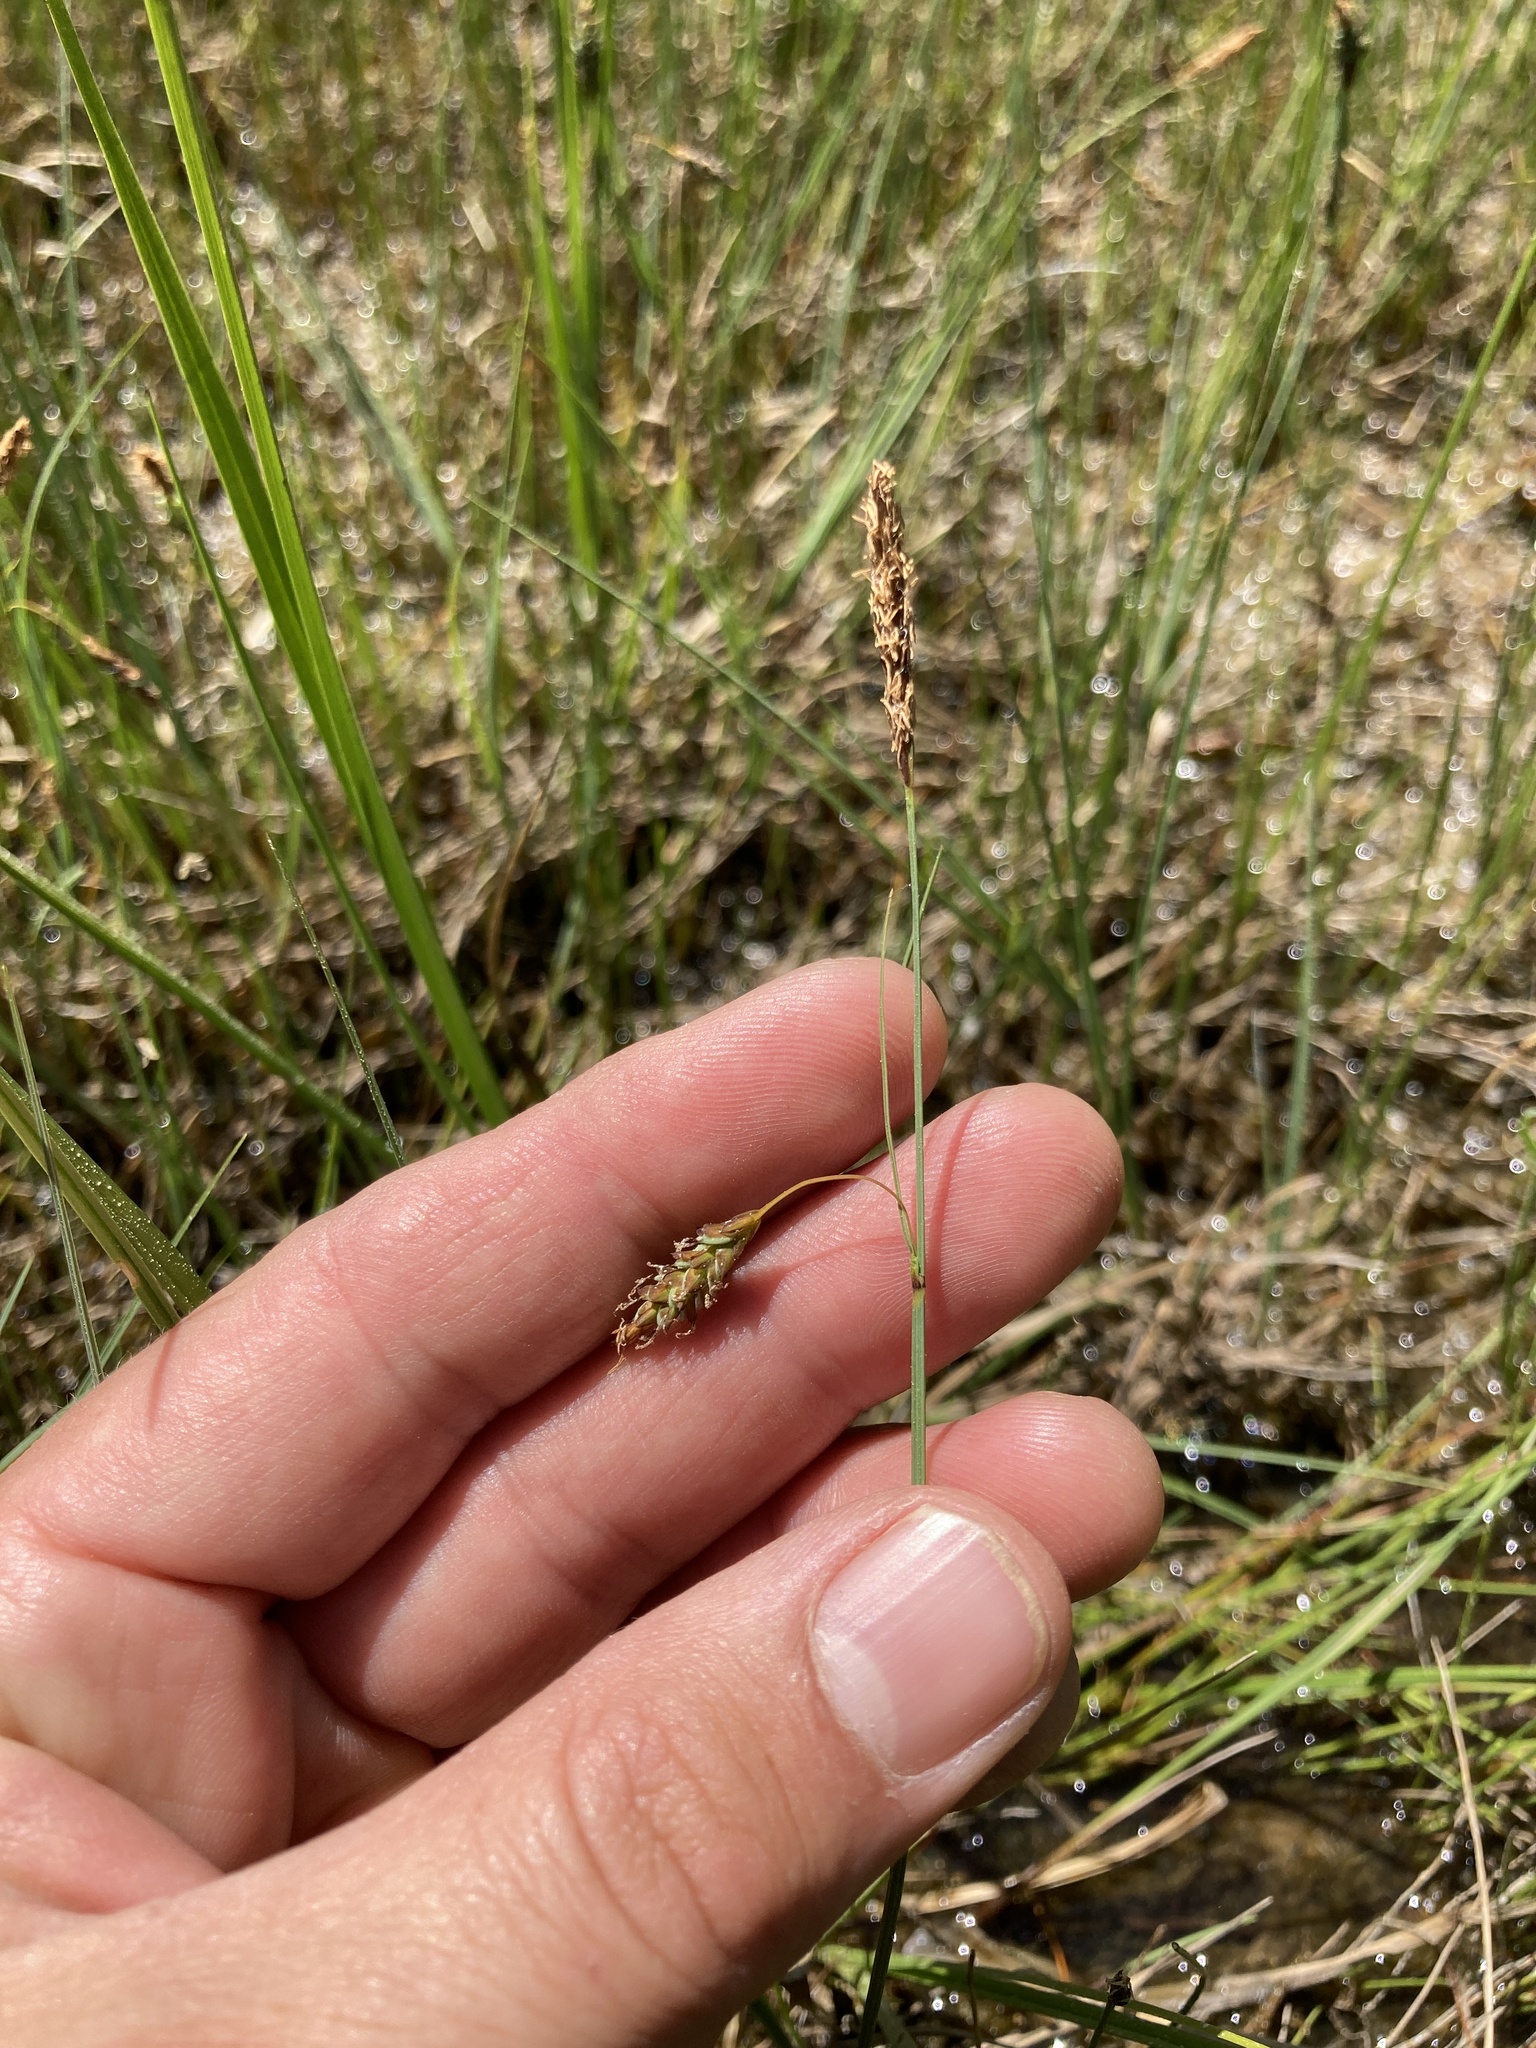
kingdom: Plantae
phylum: Tracheophyta
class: Liliopsida
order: Poales
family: Cyperaceae
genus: Carex
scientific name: Carex limosa
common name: Bog sedge
